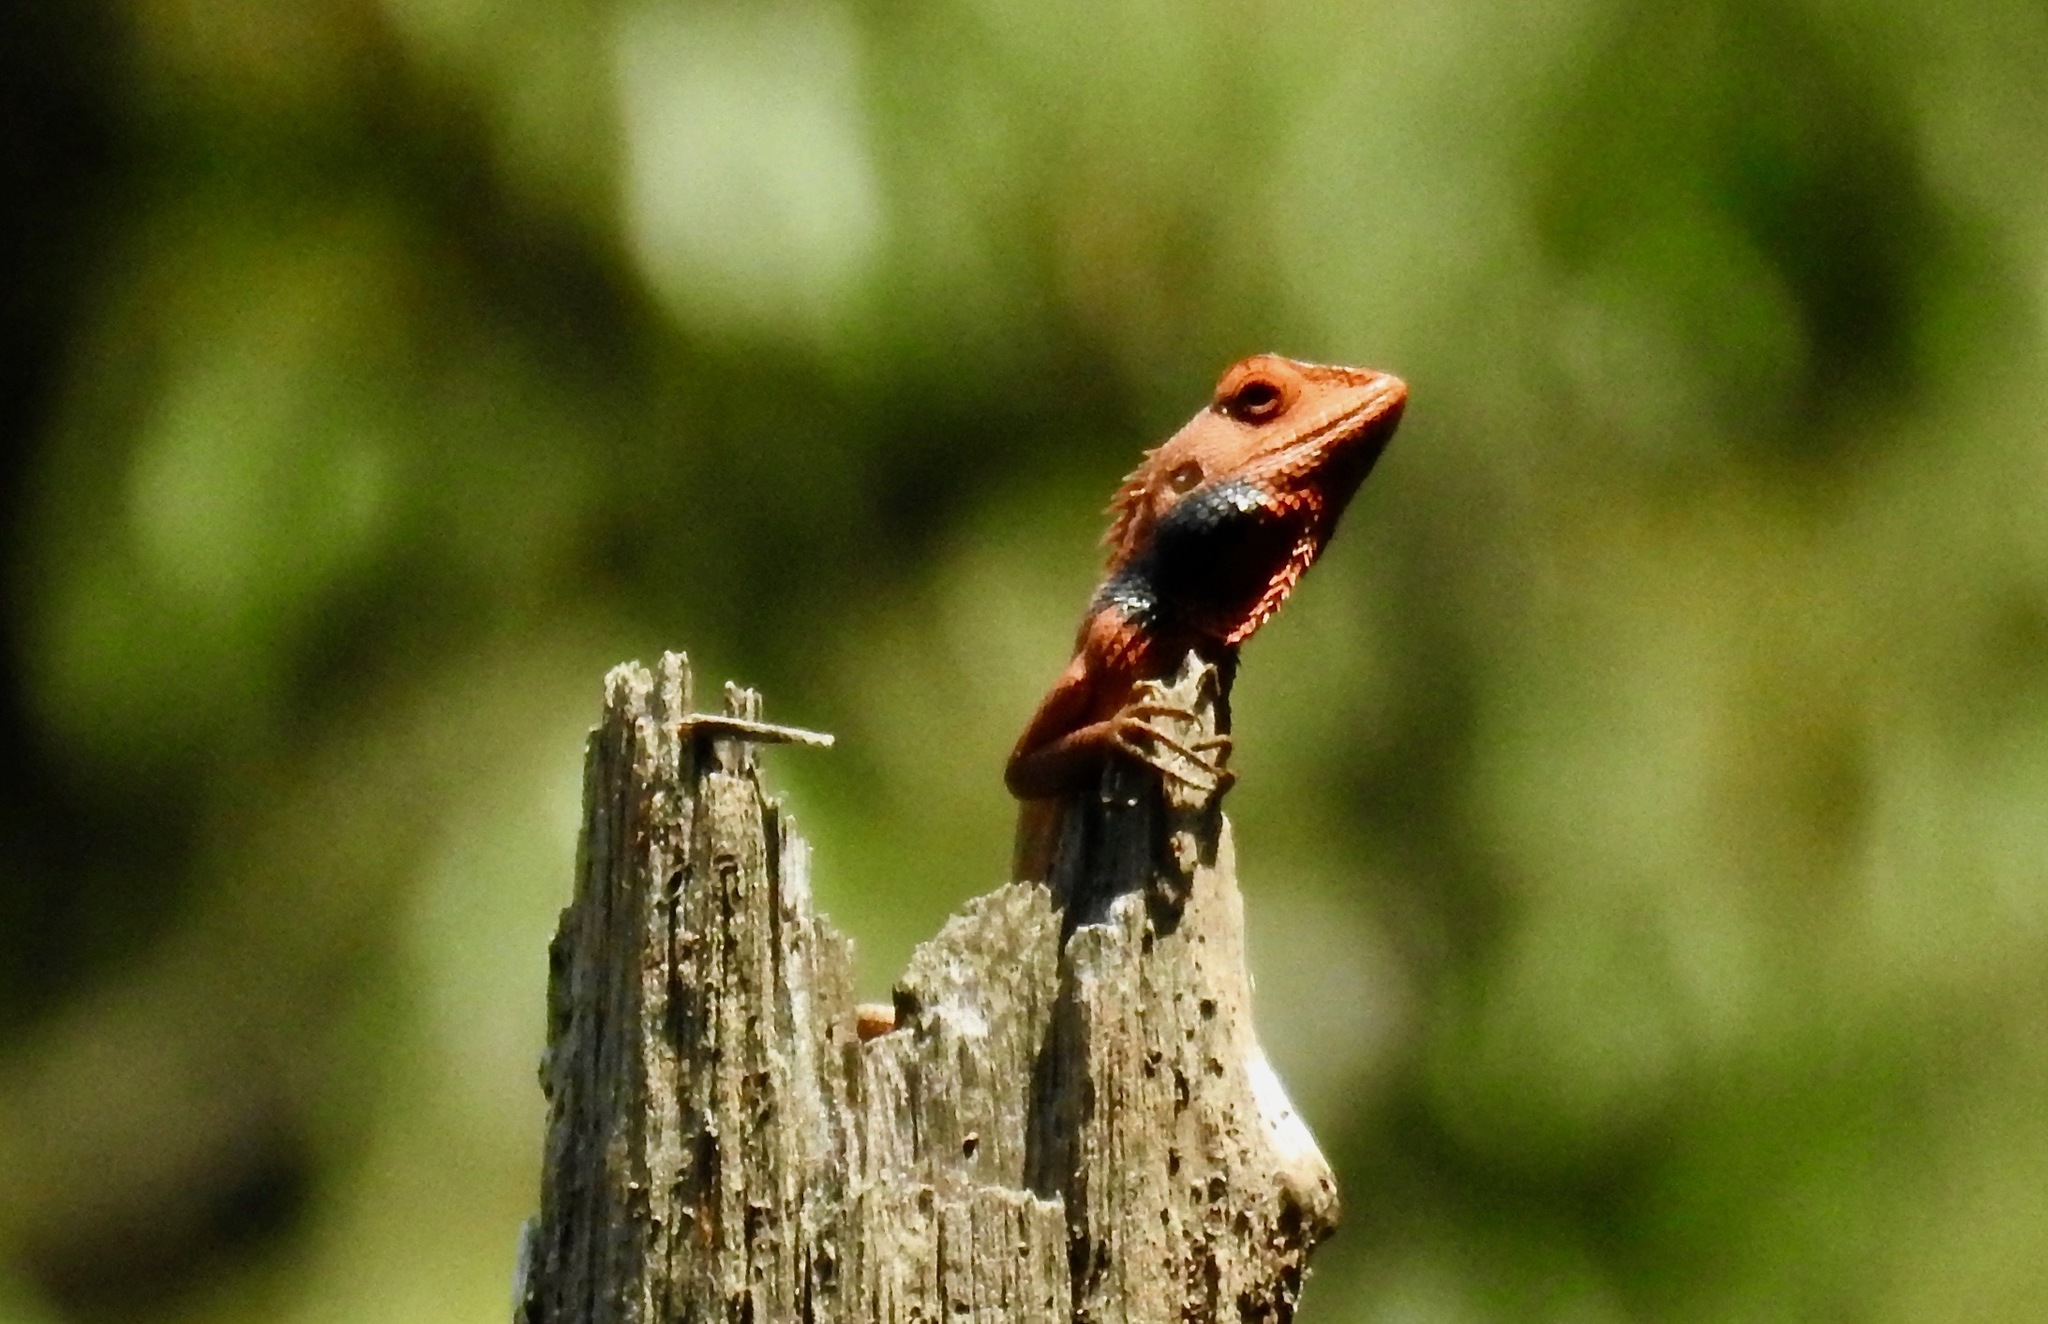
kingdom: Animalia
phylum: Chordata
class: Squamata
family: Agamidae
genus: Calotes
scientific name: Calotes versicolor
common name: Oriental garden lizard
